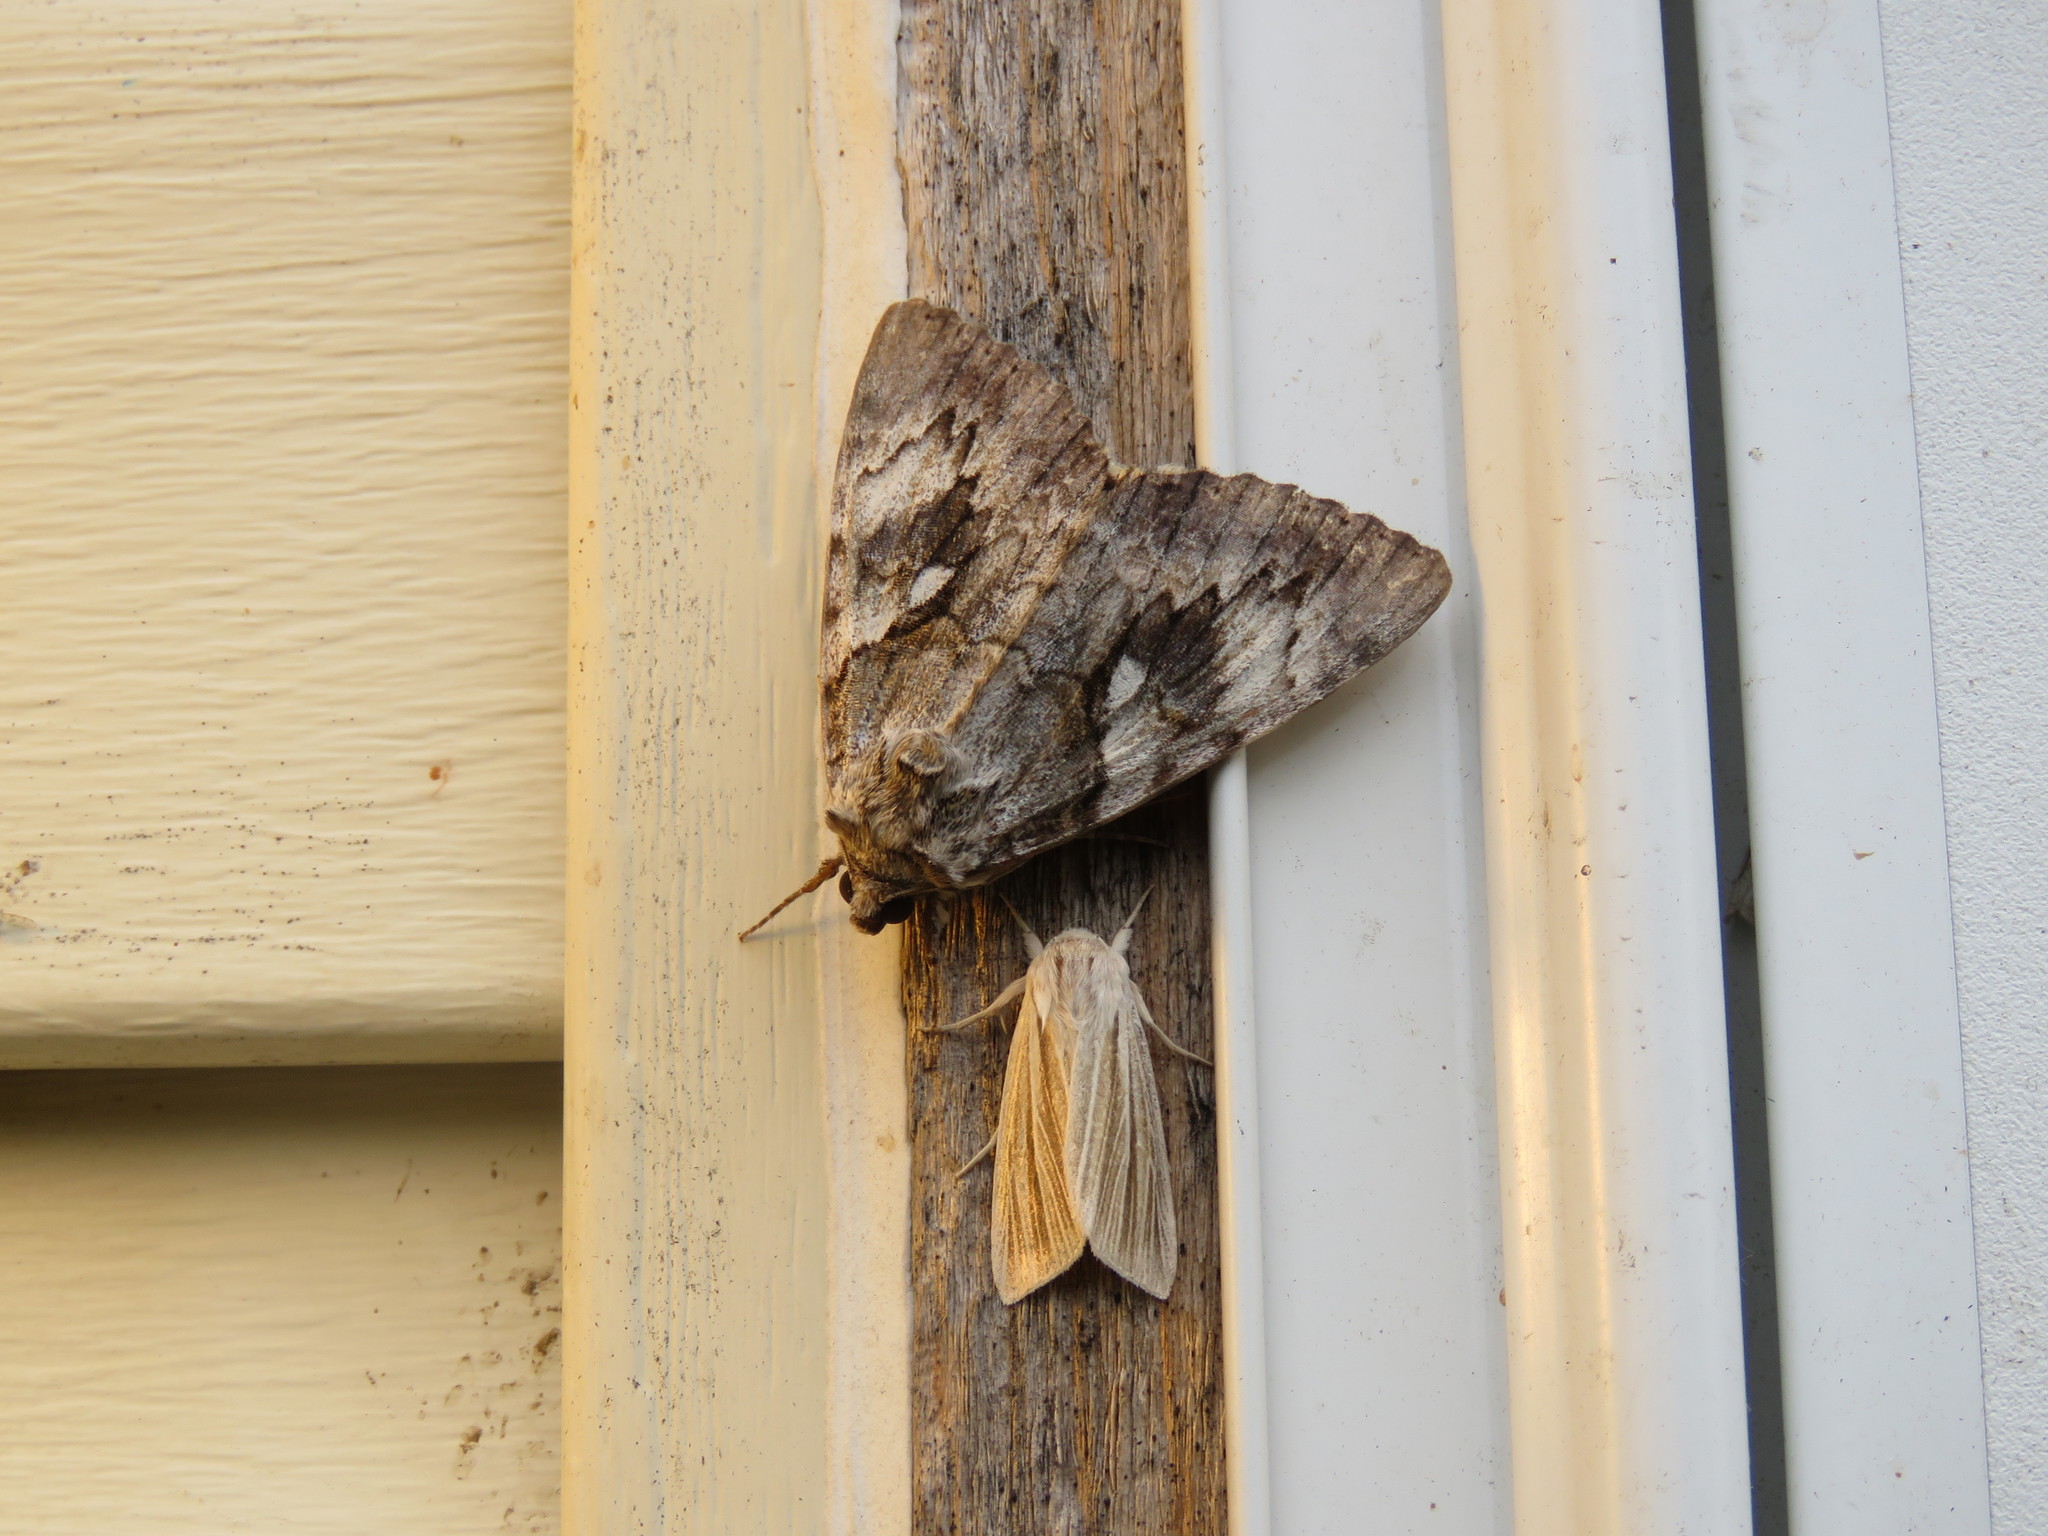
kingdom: Animalia
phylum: Arthropoda
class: Insecta
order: Lepidoptera
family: Erebidae
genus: Catocala
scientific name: Catocala cerogama
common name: Yellow banded underwing
